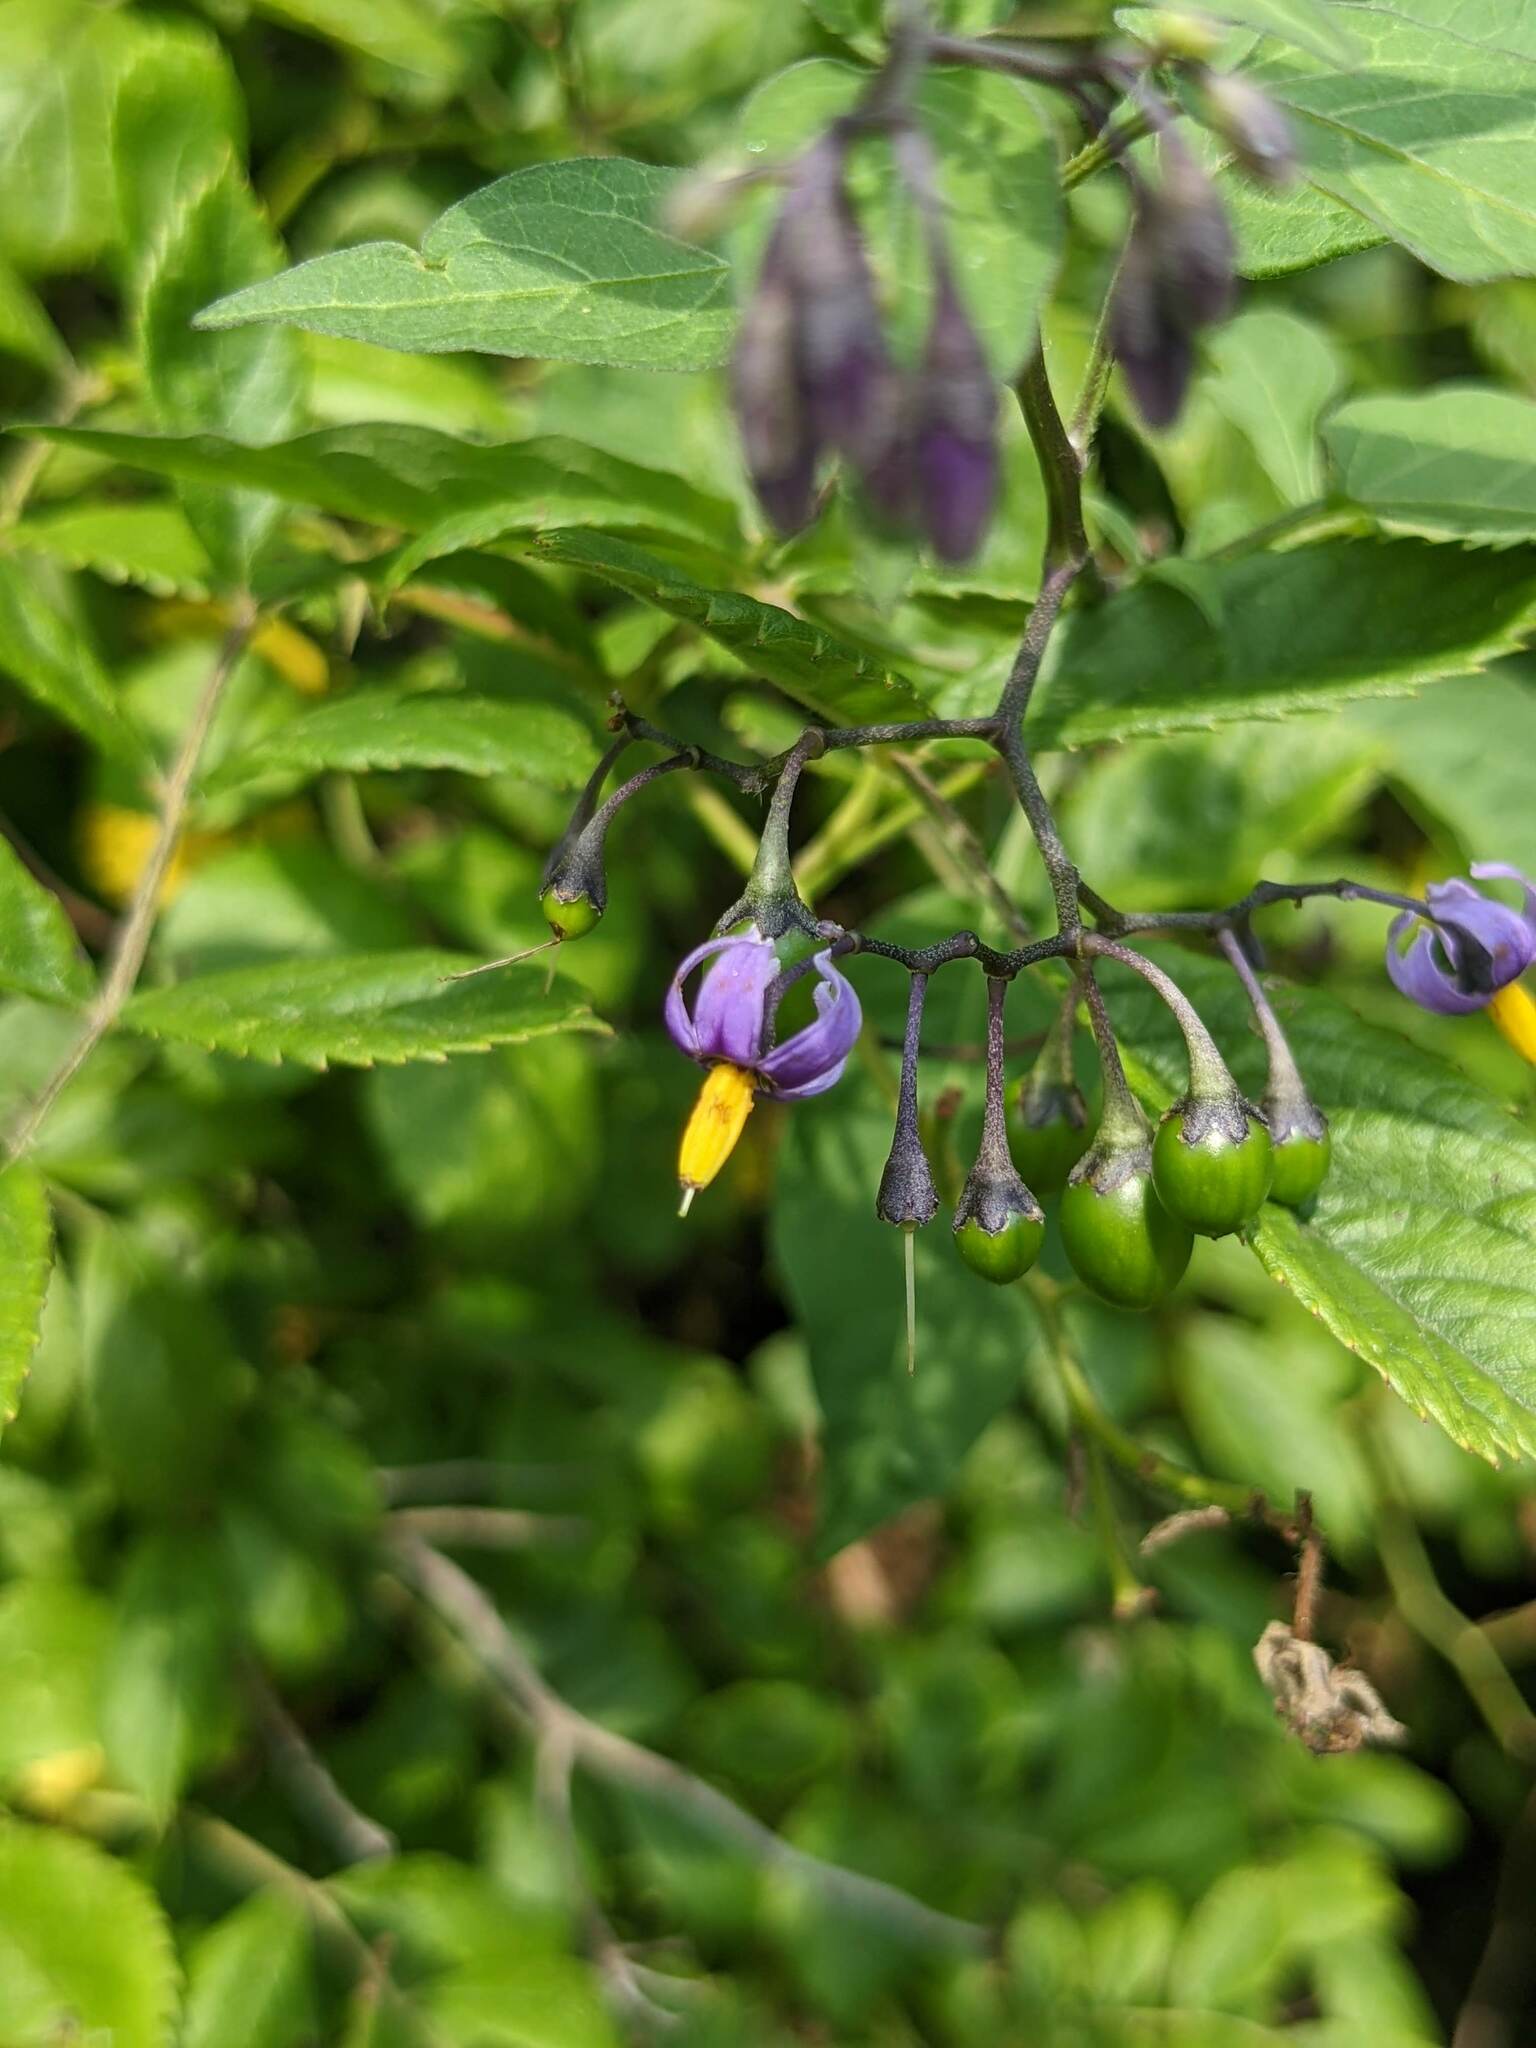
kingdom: Plantae
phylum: Tracheophyta
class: Magnoliopsida
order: Solanales
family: Solanaceae
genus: Solanum
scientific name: Solanum dulcamara
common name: Climbing nightshade
